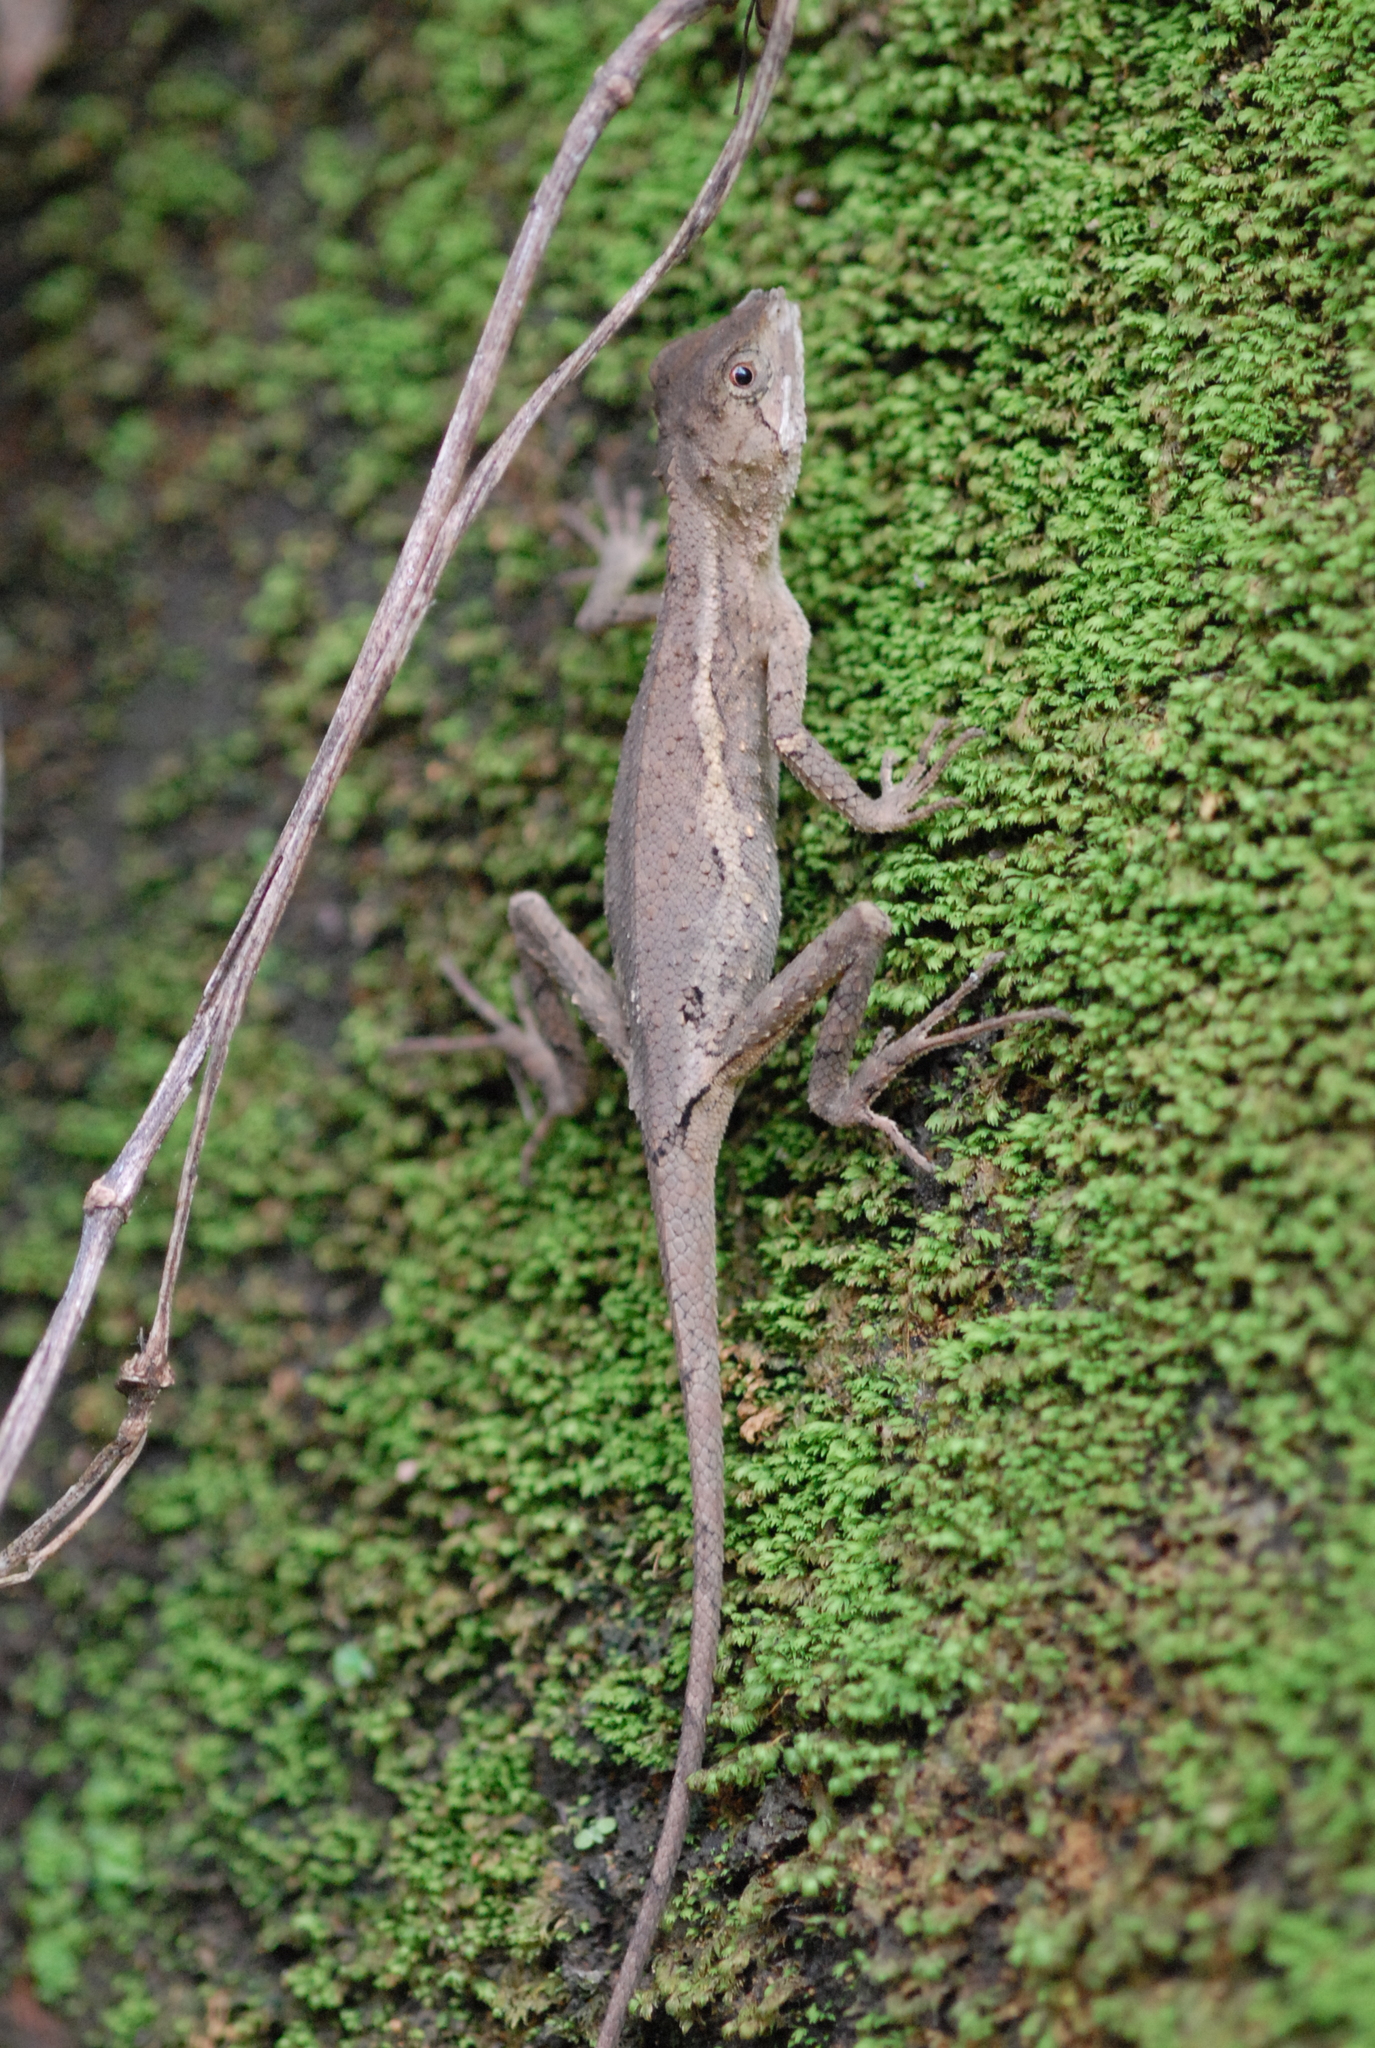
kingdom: Animalia
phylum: Chordata
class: Squamata
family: Agamidae
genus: Diploderma
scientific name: Diploderma swinhonis
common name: Taiwan japalure
